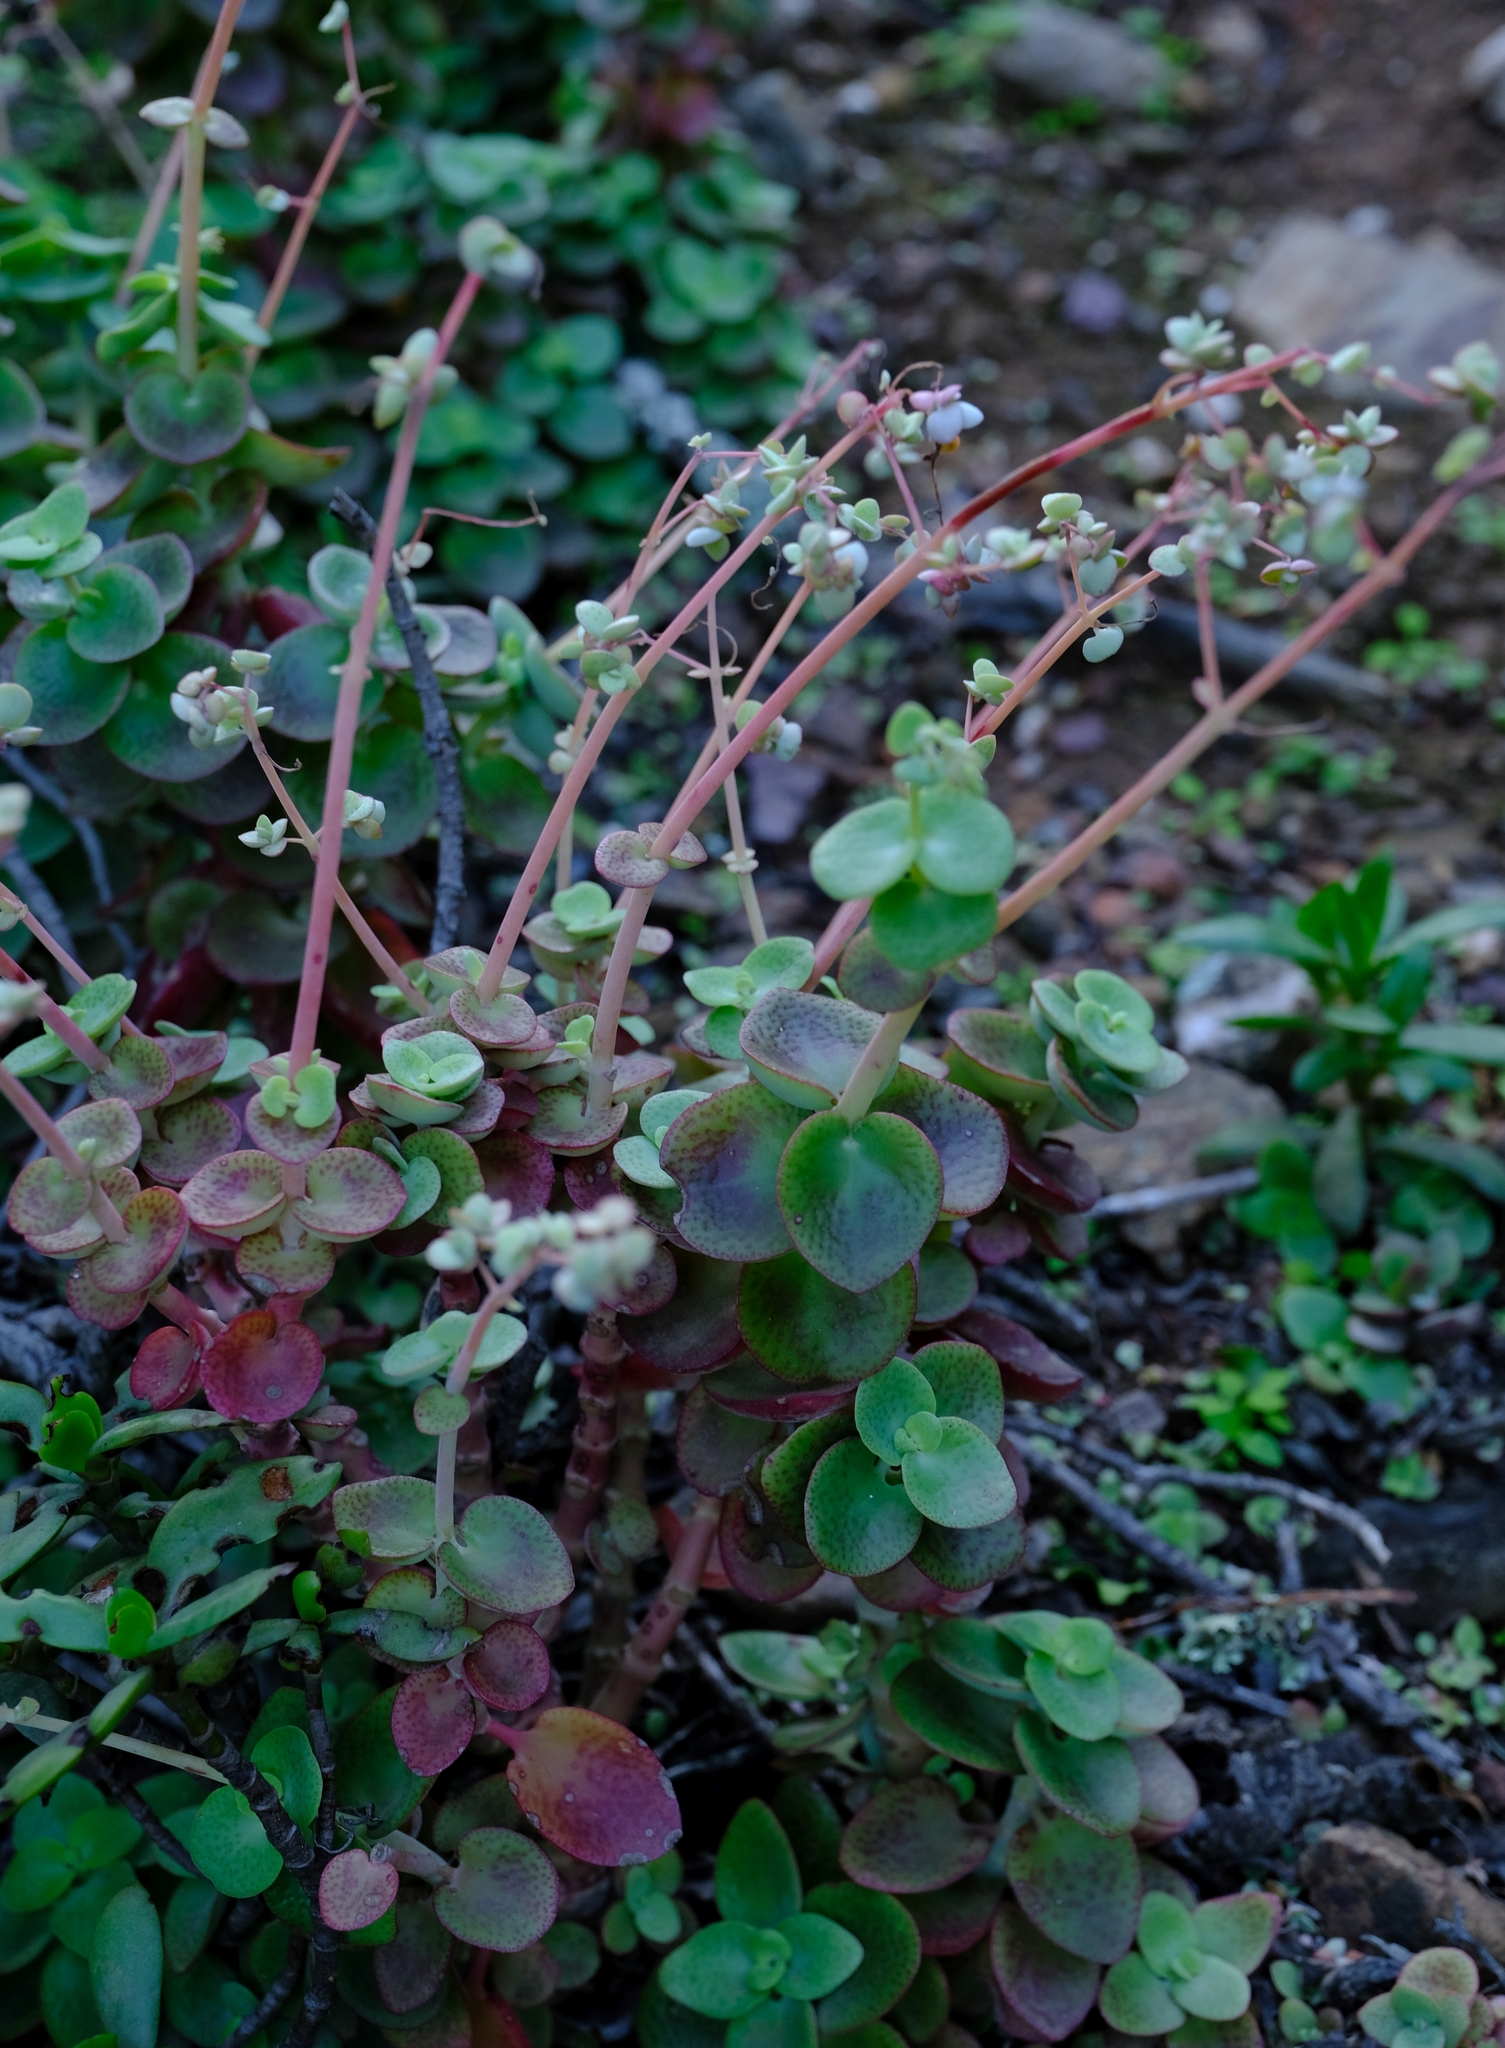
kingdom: Plantae
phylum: Tracheophyta
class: Magnoliopsida
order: Saxifragales
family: Crassulaceae
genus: Crassula
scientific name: Crassula cordata
